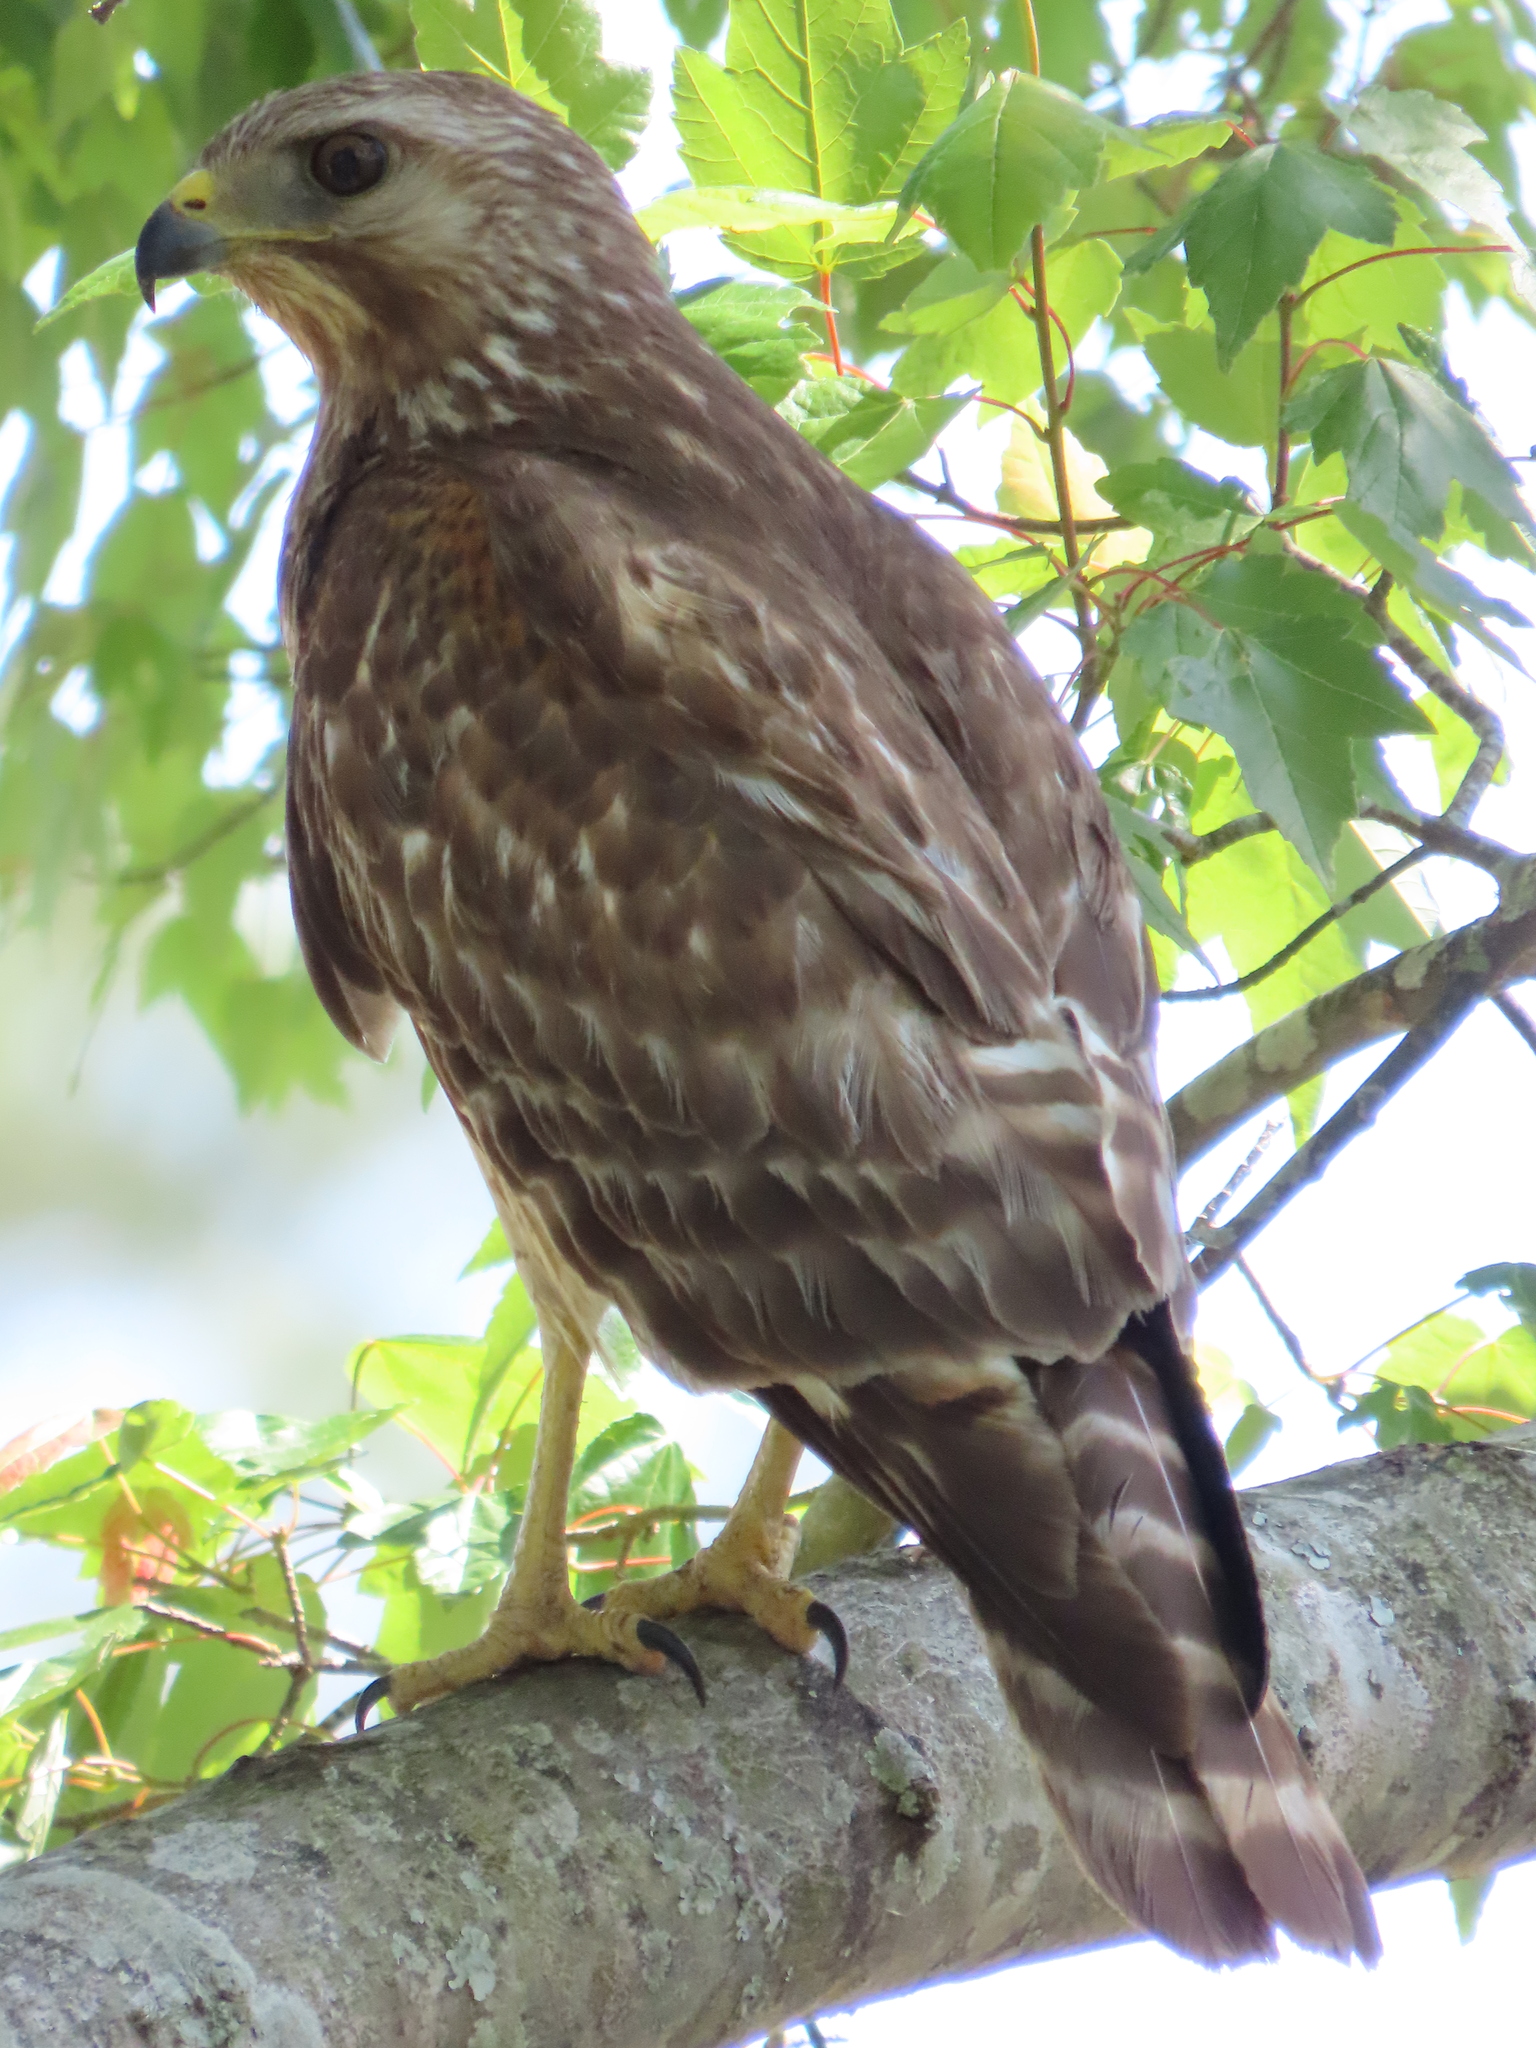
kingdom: Animalia
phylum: Chordata
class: Aves
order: Accipitriformes
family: Accipitridae
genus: Buteo
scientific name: Buteo lineatus
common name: Red-shouldered hawk
